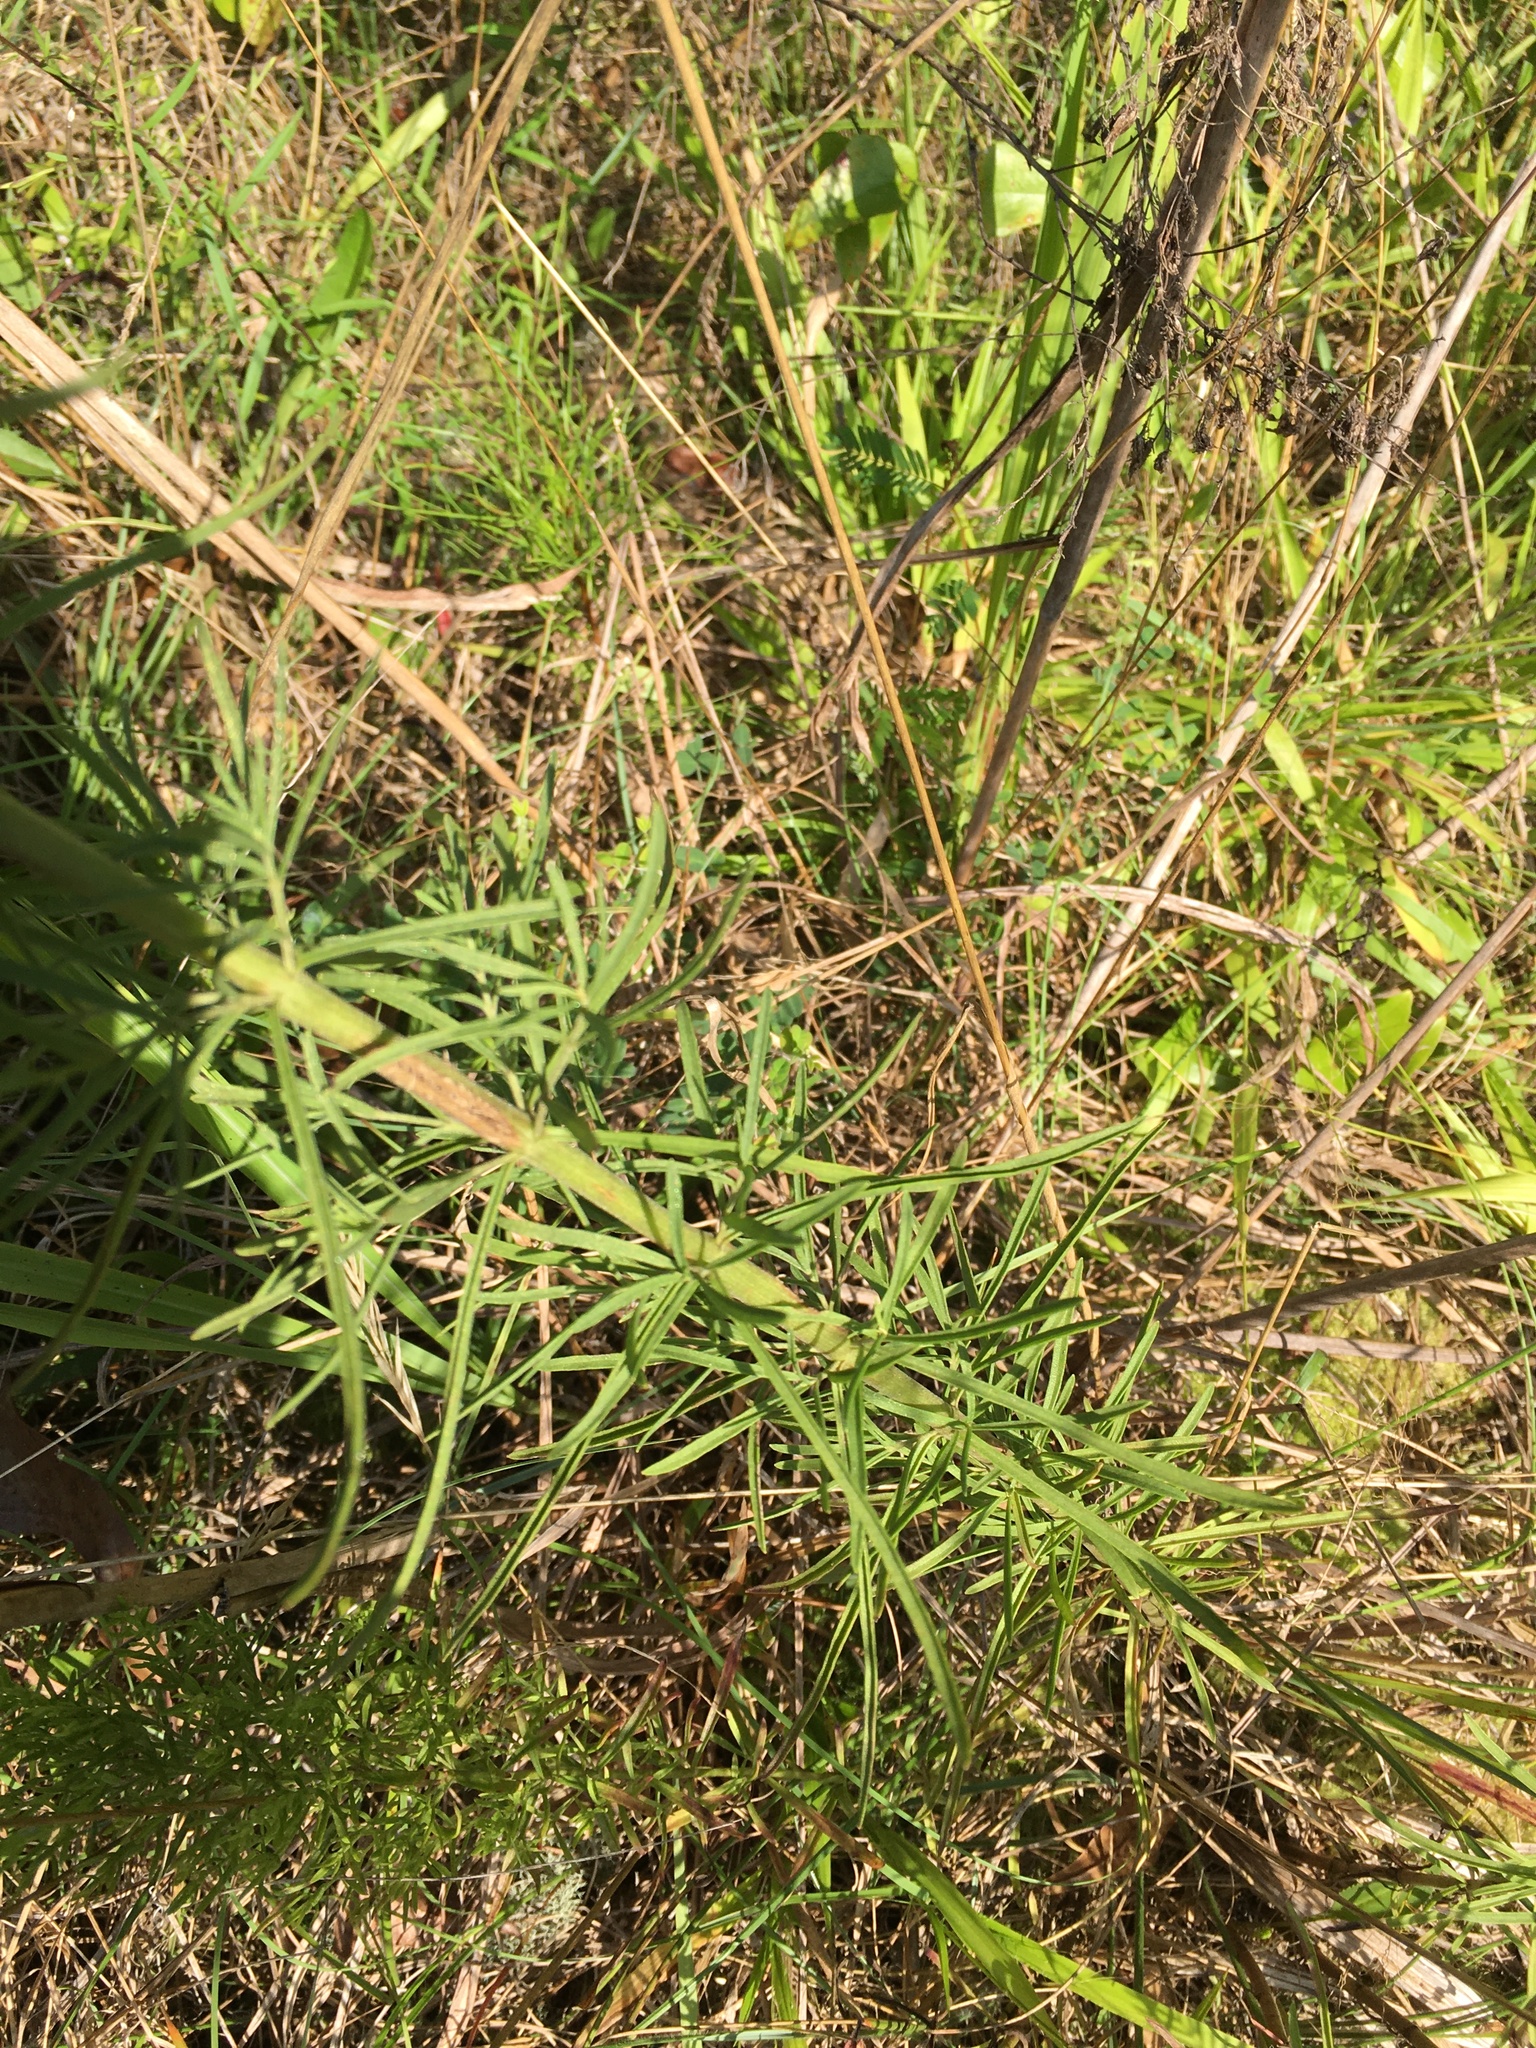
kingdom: Plantae
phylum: Tracheophyta
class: Magnoliopsida
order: Asterales
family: Asteraceae
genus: Eupatorium
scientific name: Eupatorium hyssopifolium
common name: Hyssop-leaf thoroughwort
